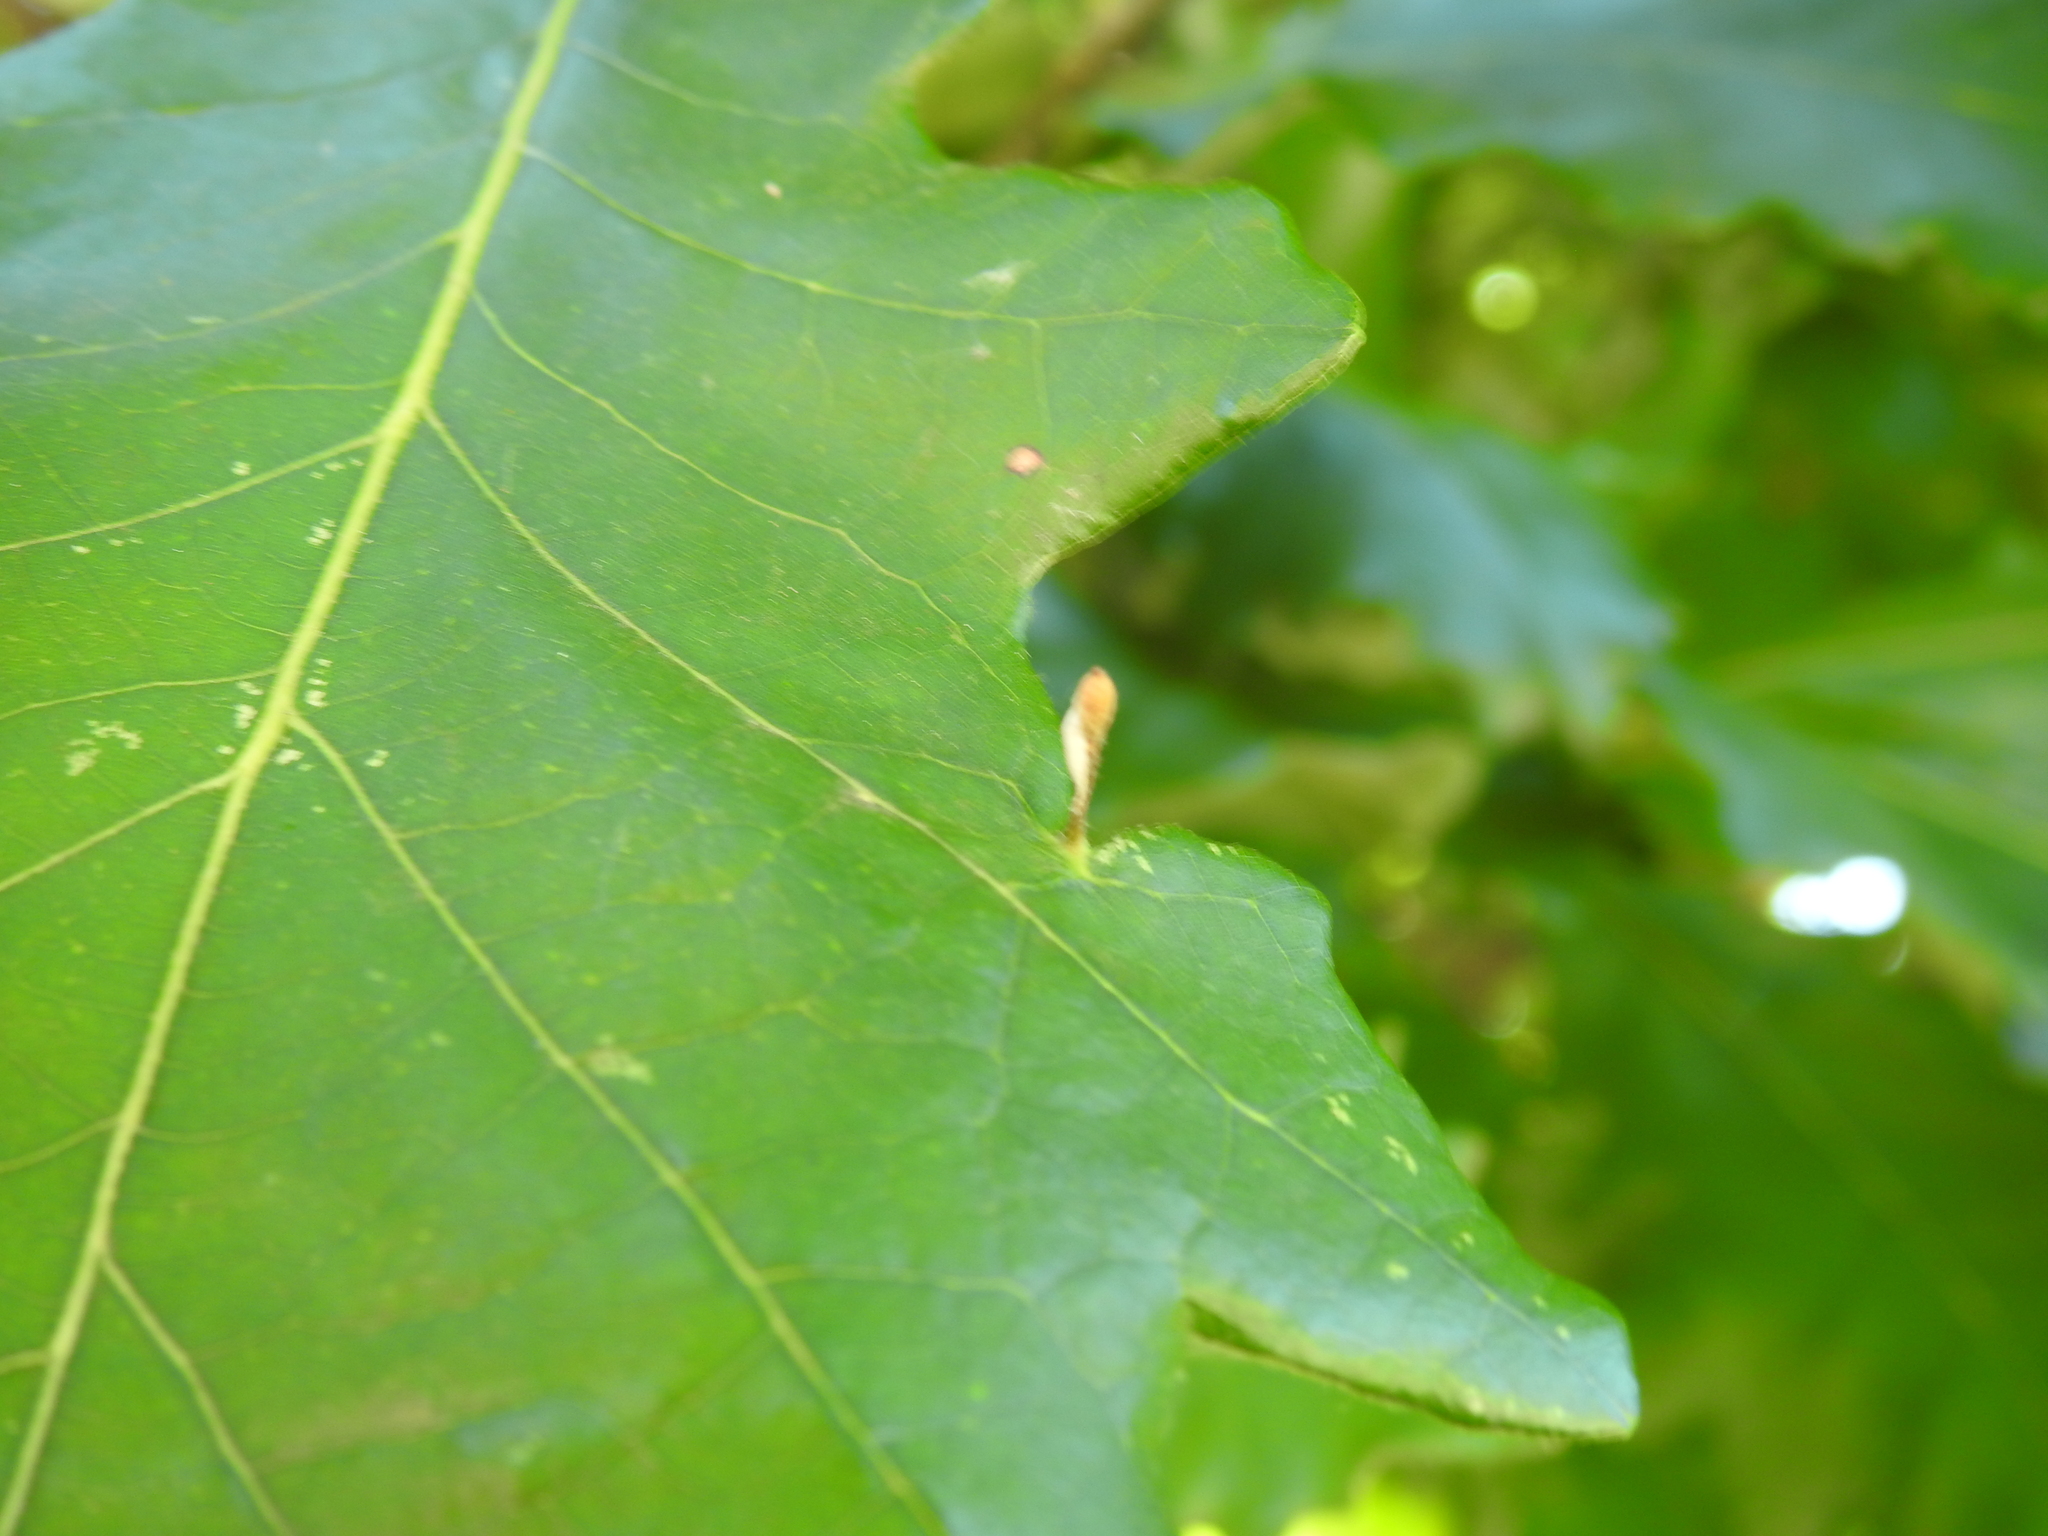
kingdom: Animalia
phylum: Arthropoda
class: Insecta
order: Hymenoptera
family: Cynipidae
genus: Andricus
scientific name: Andricus
